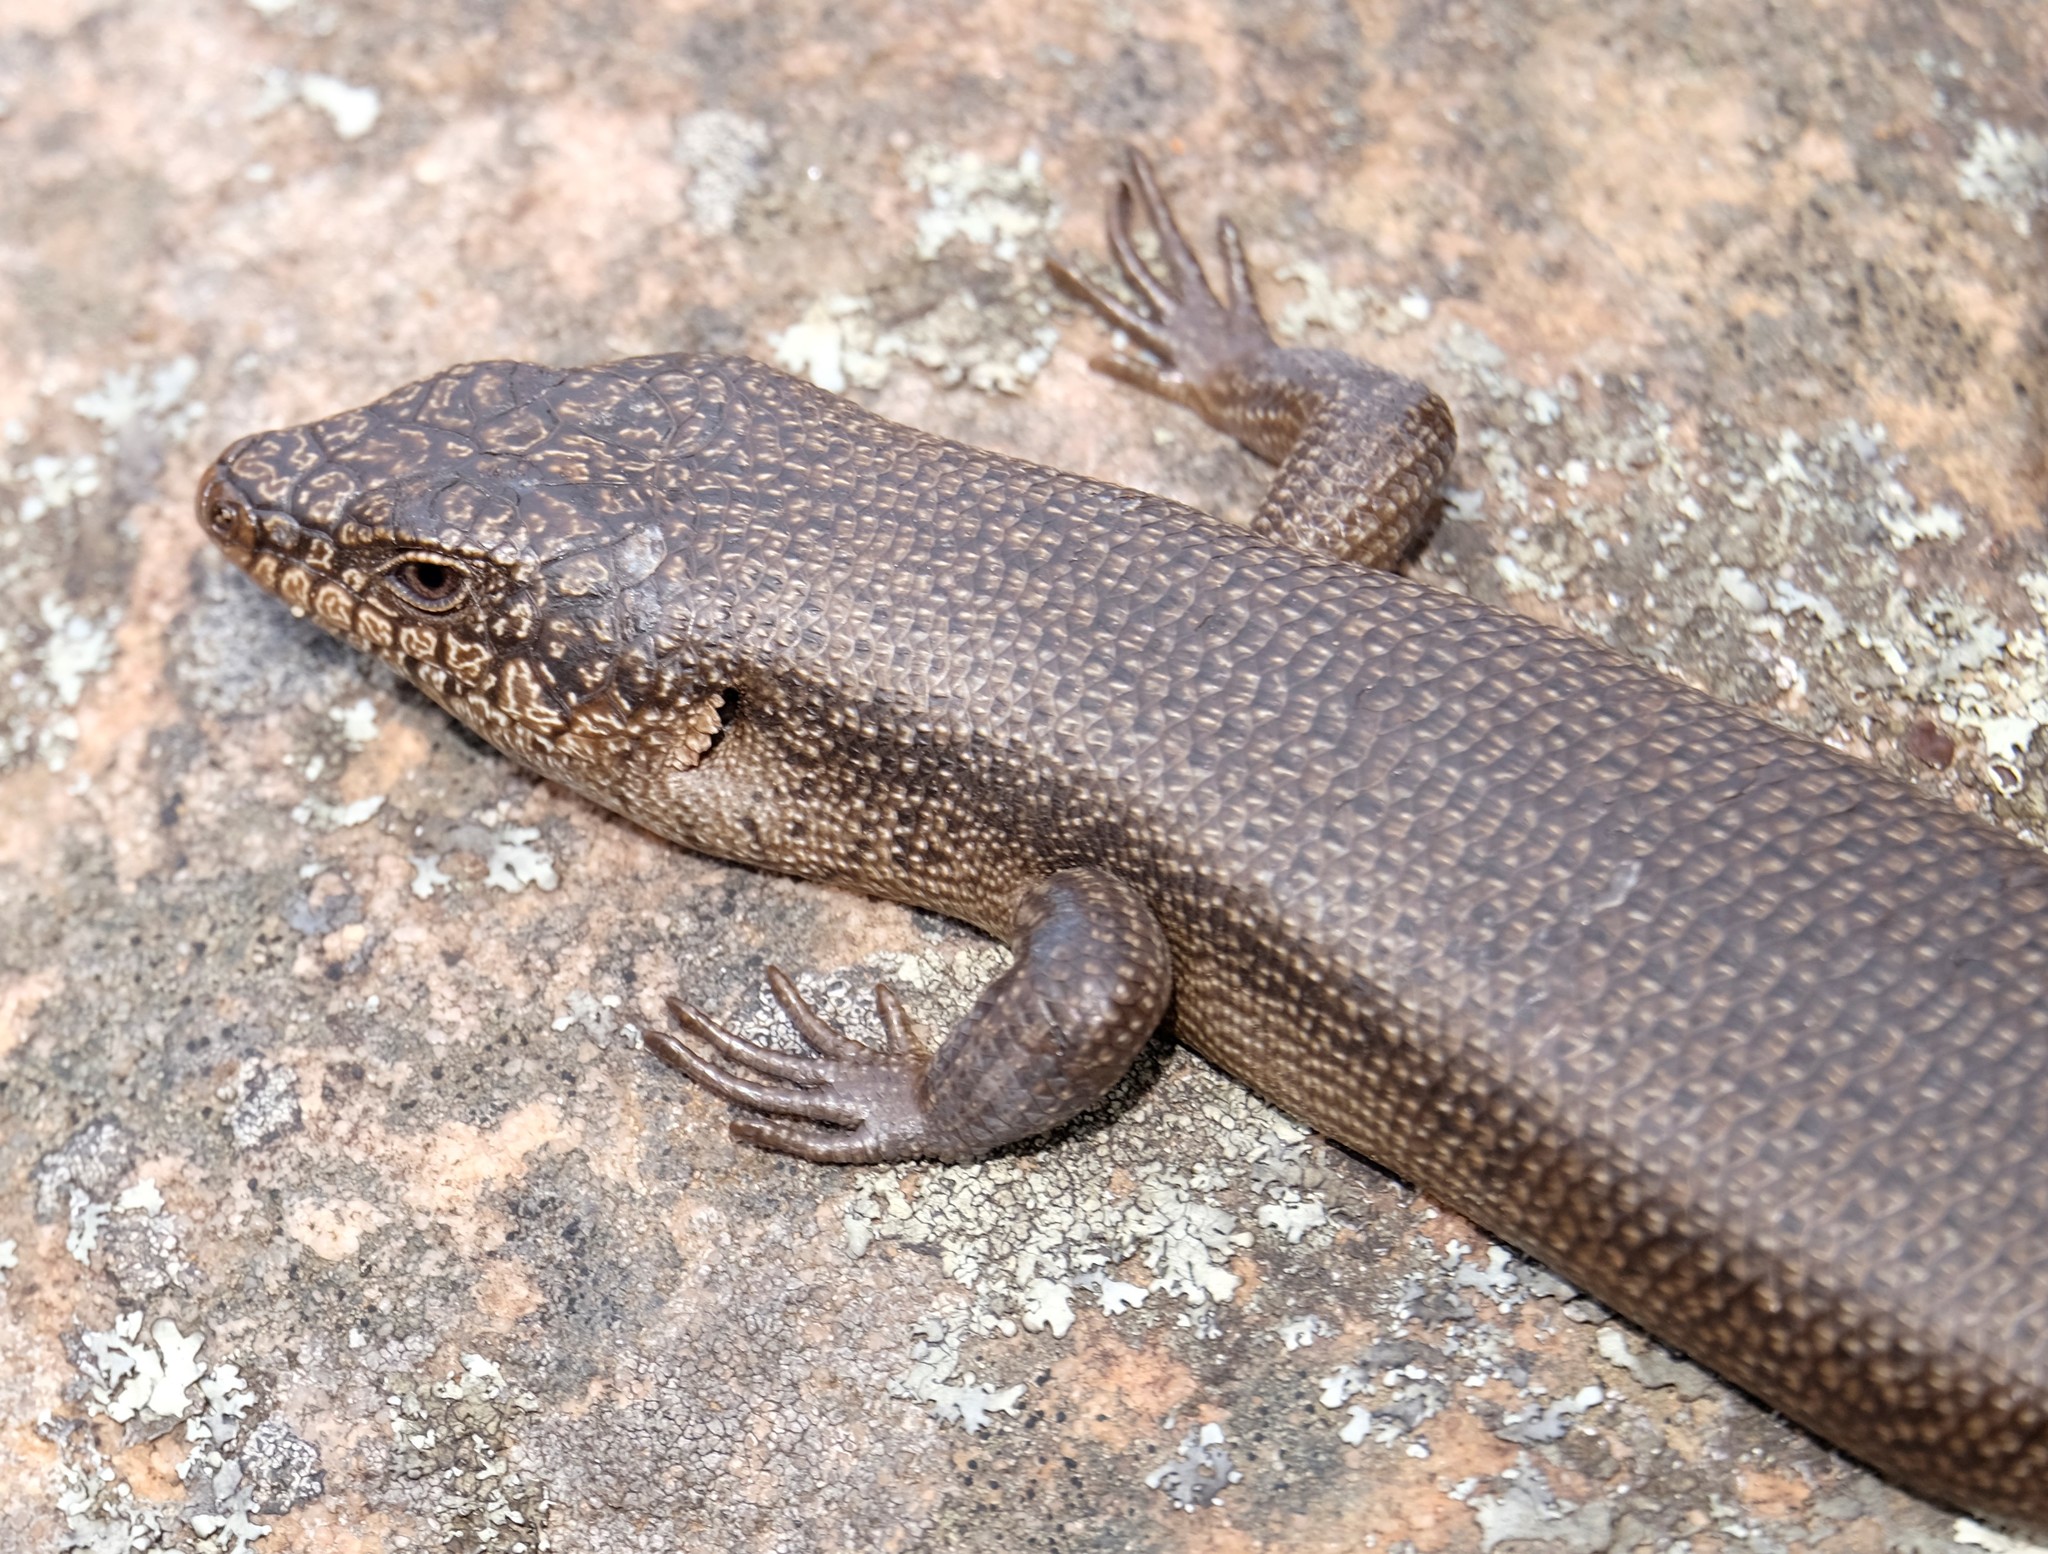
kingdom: Animalia
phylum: Chordata
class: Squamata
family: Scincidae
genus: Egernia
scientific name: Egernia saxatilis
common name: Black crevice-skink
